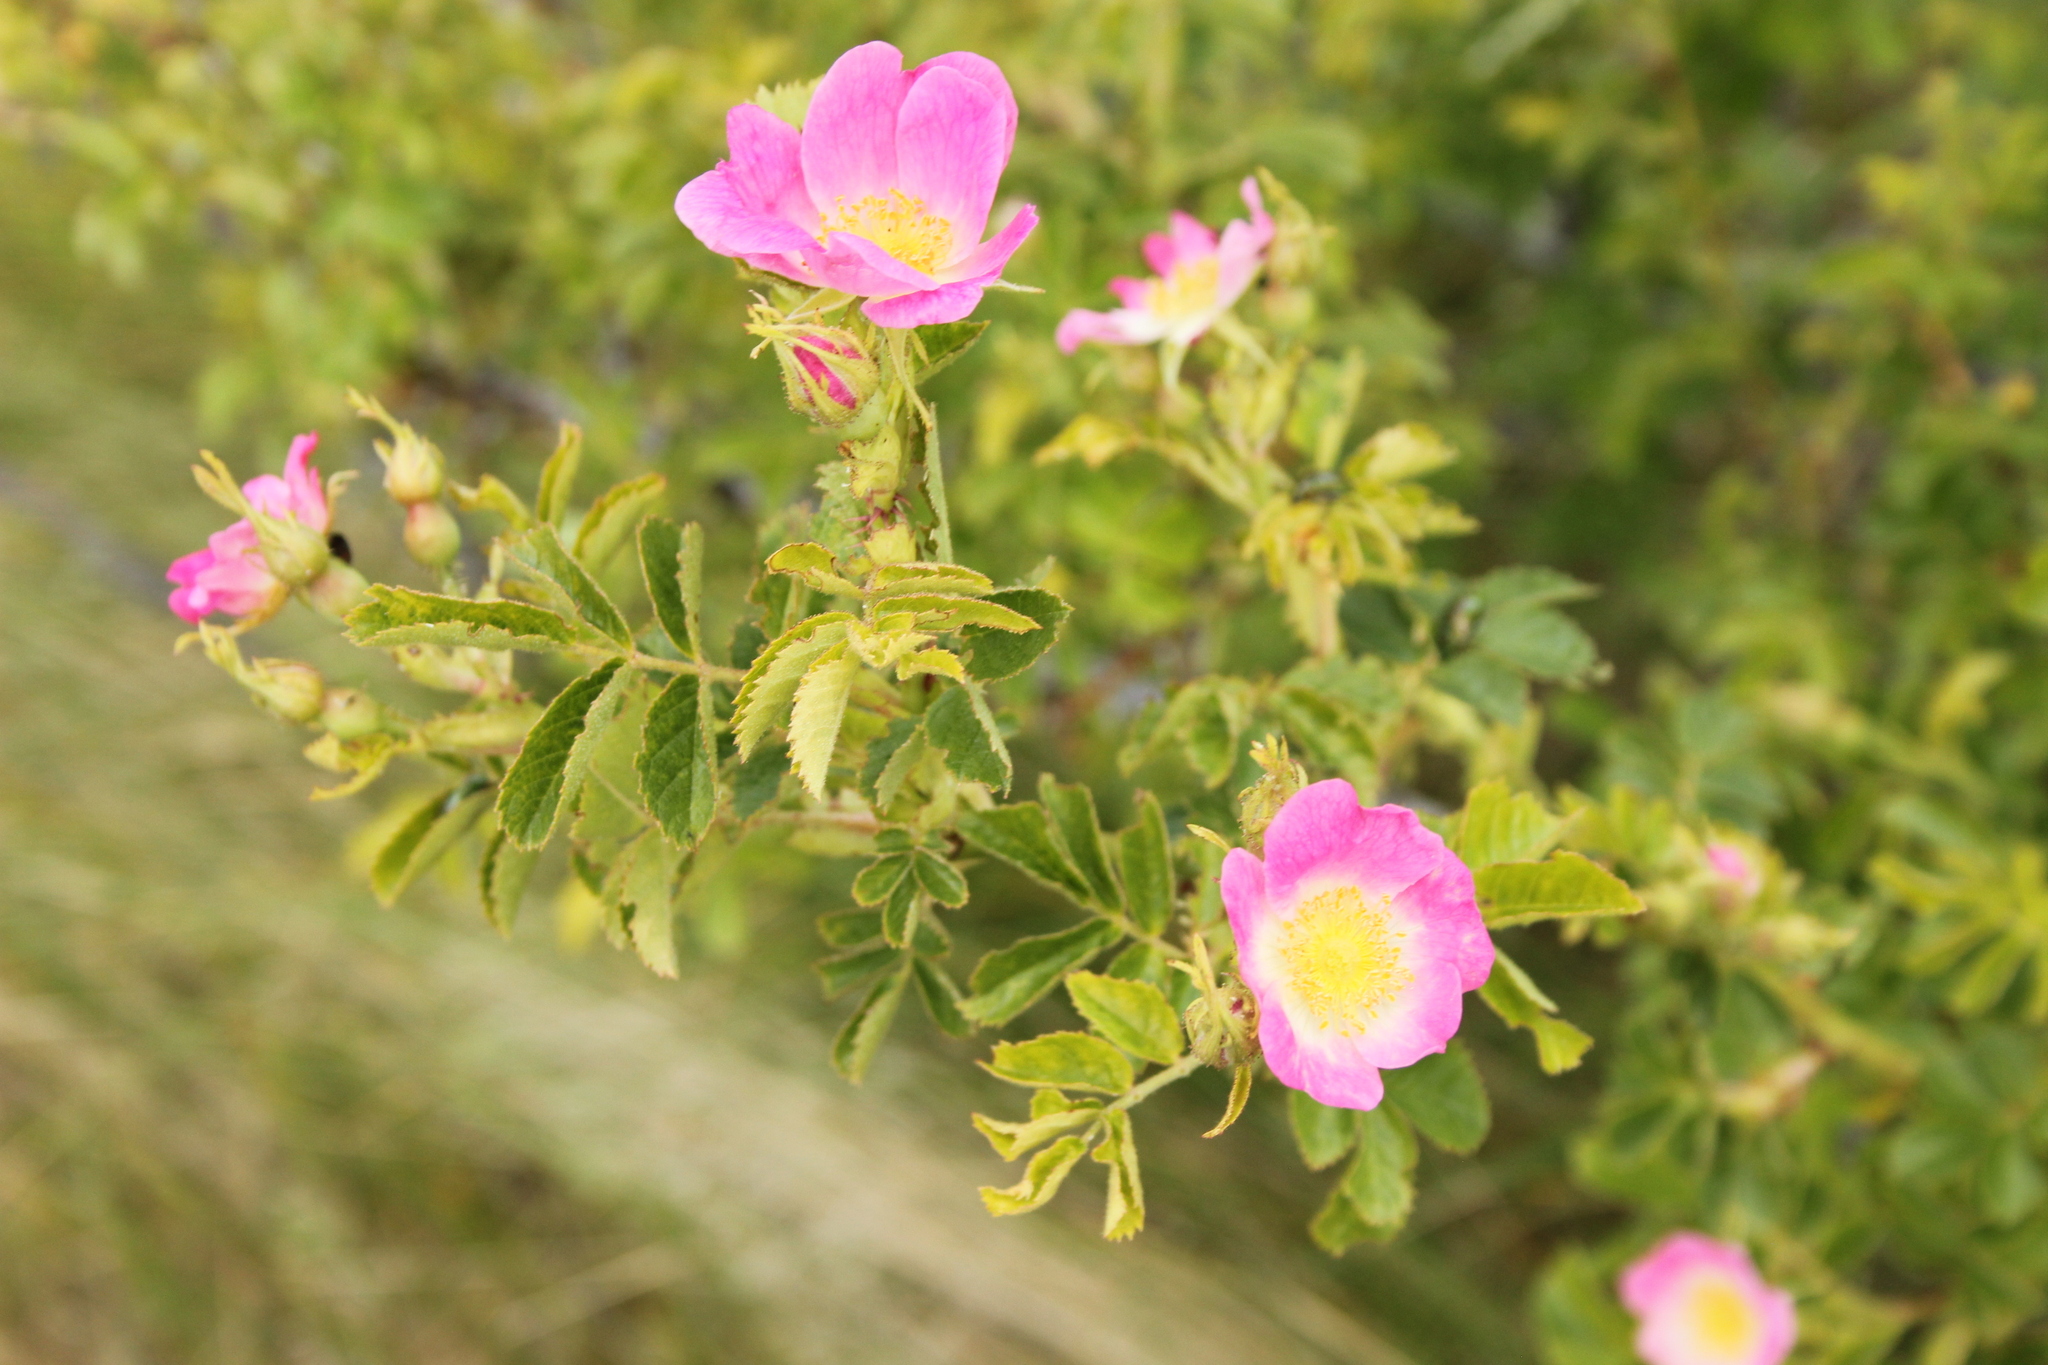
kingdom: Plantae
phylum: Tracheophyta
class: Magnoliopsida
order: Rosales
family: Rosaceae
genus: Rosa
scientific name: Rosa rubiginosa
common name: Sweet-briar
